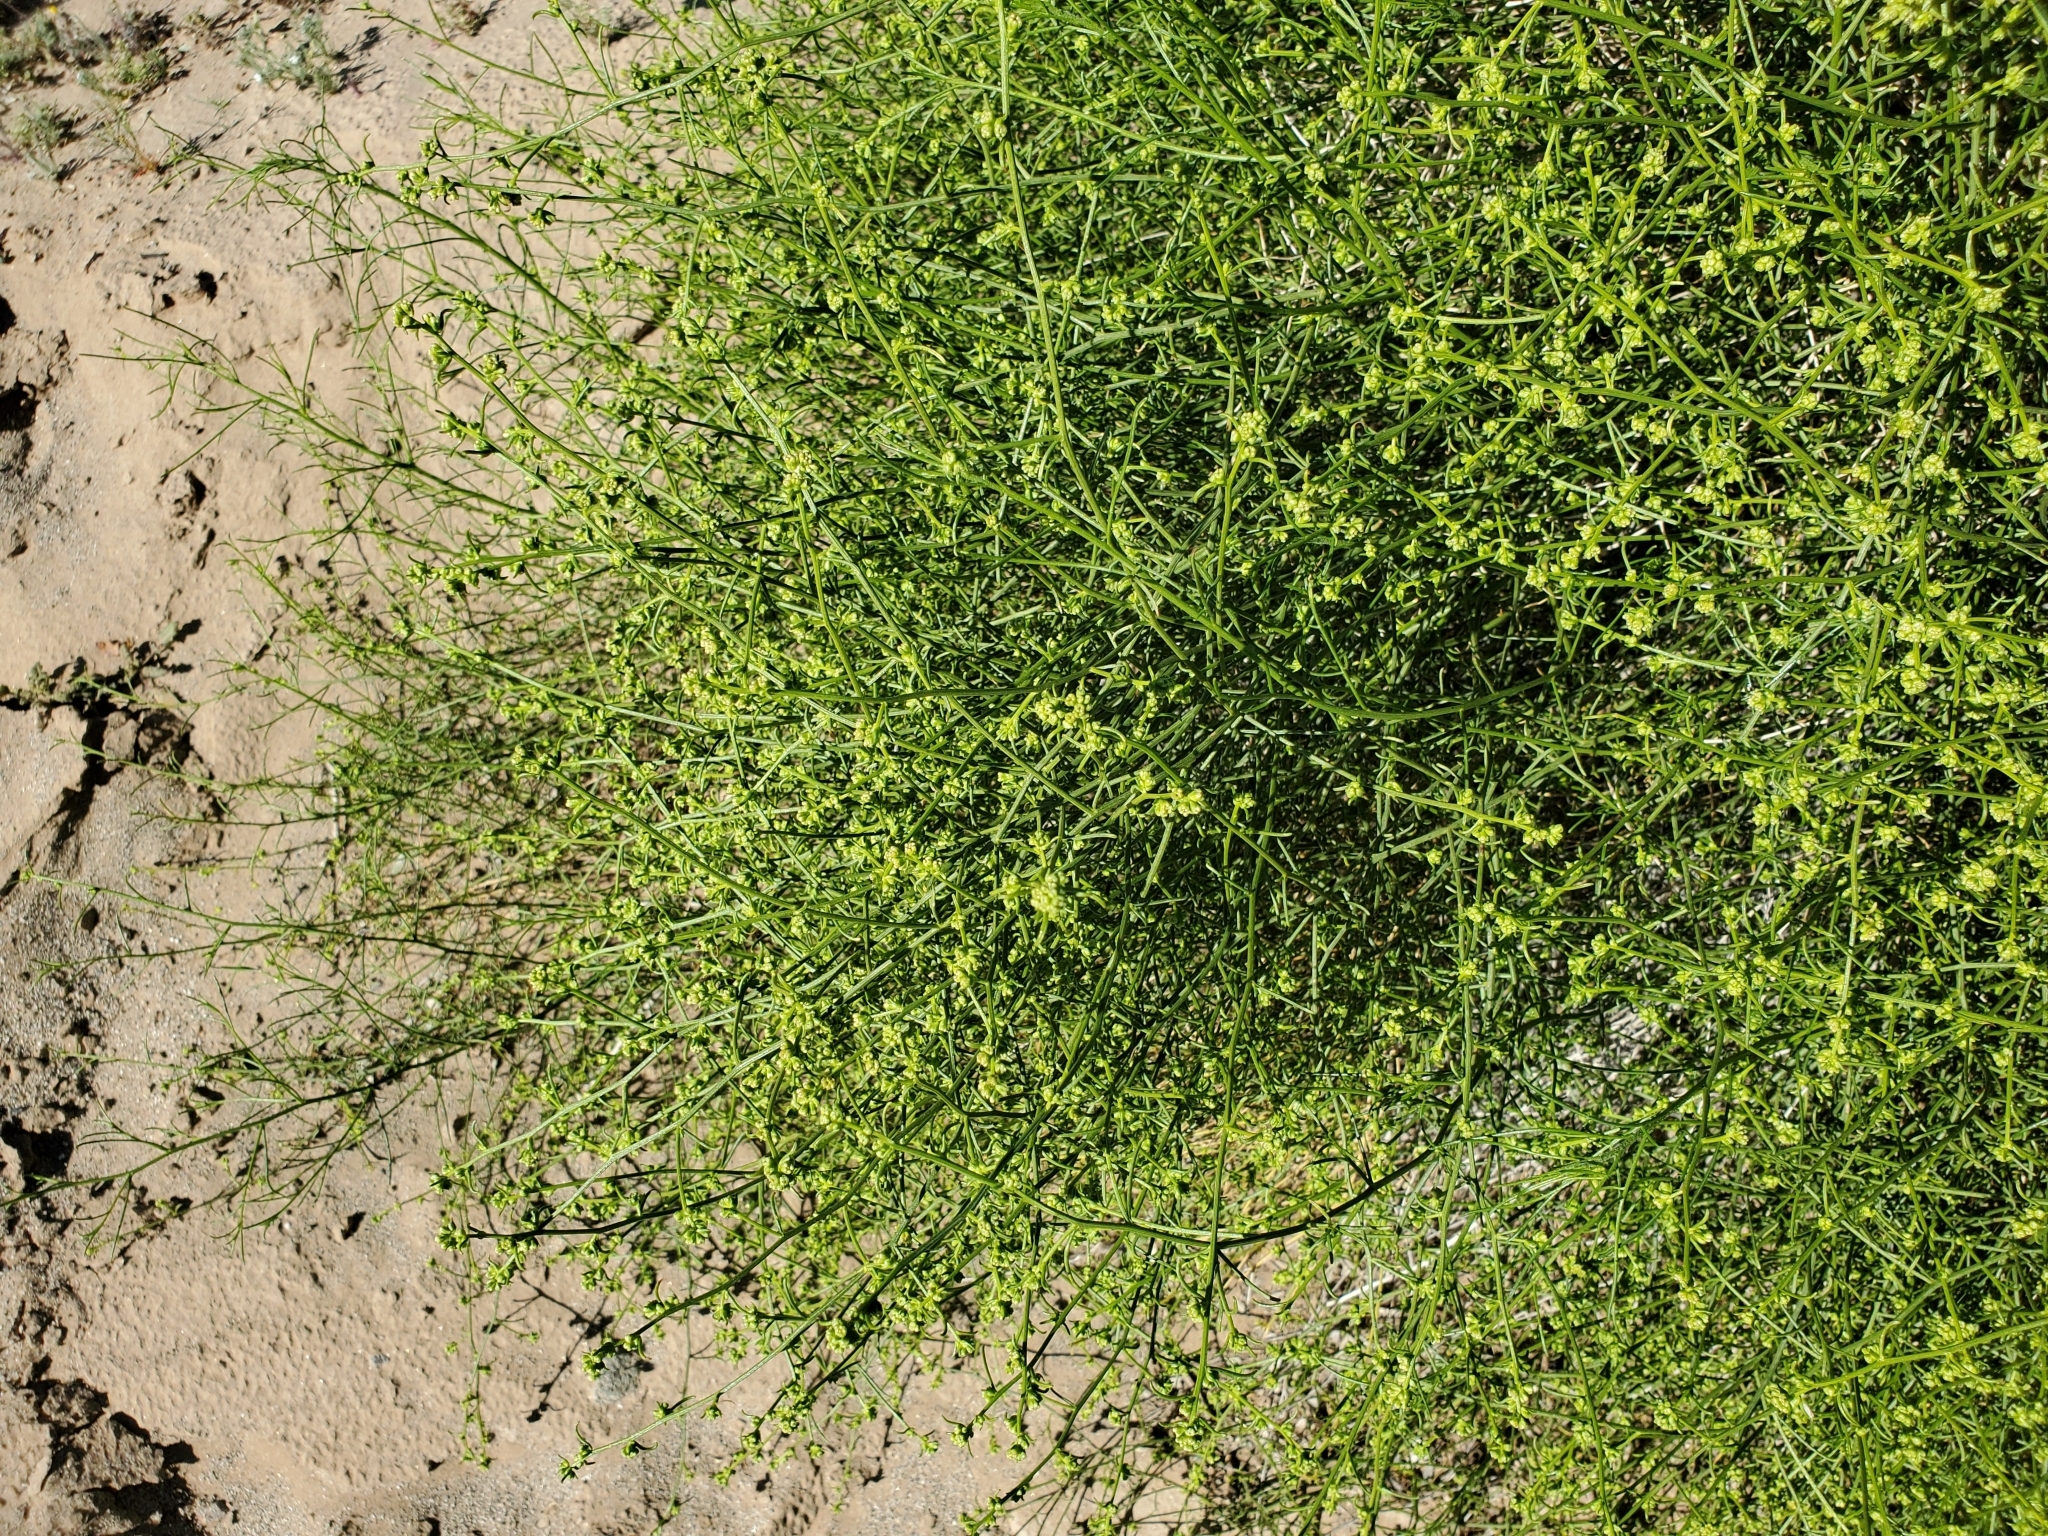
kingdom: Plantae
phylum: Tracheophyta
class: Magnoliopsida
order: Asterales
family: Asteraceae
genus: Ambrosia
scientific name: Ambrosia salsola
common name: Burrobrush
